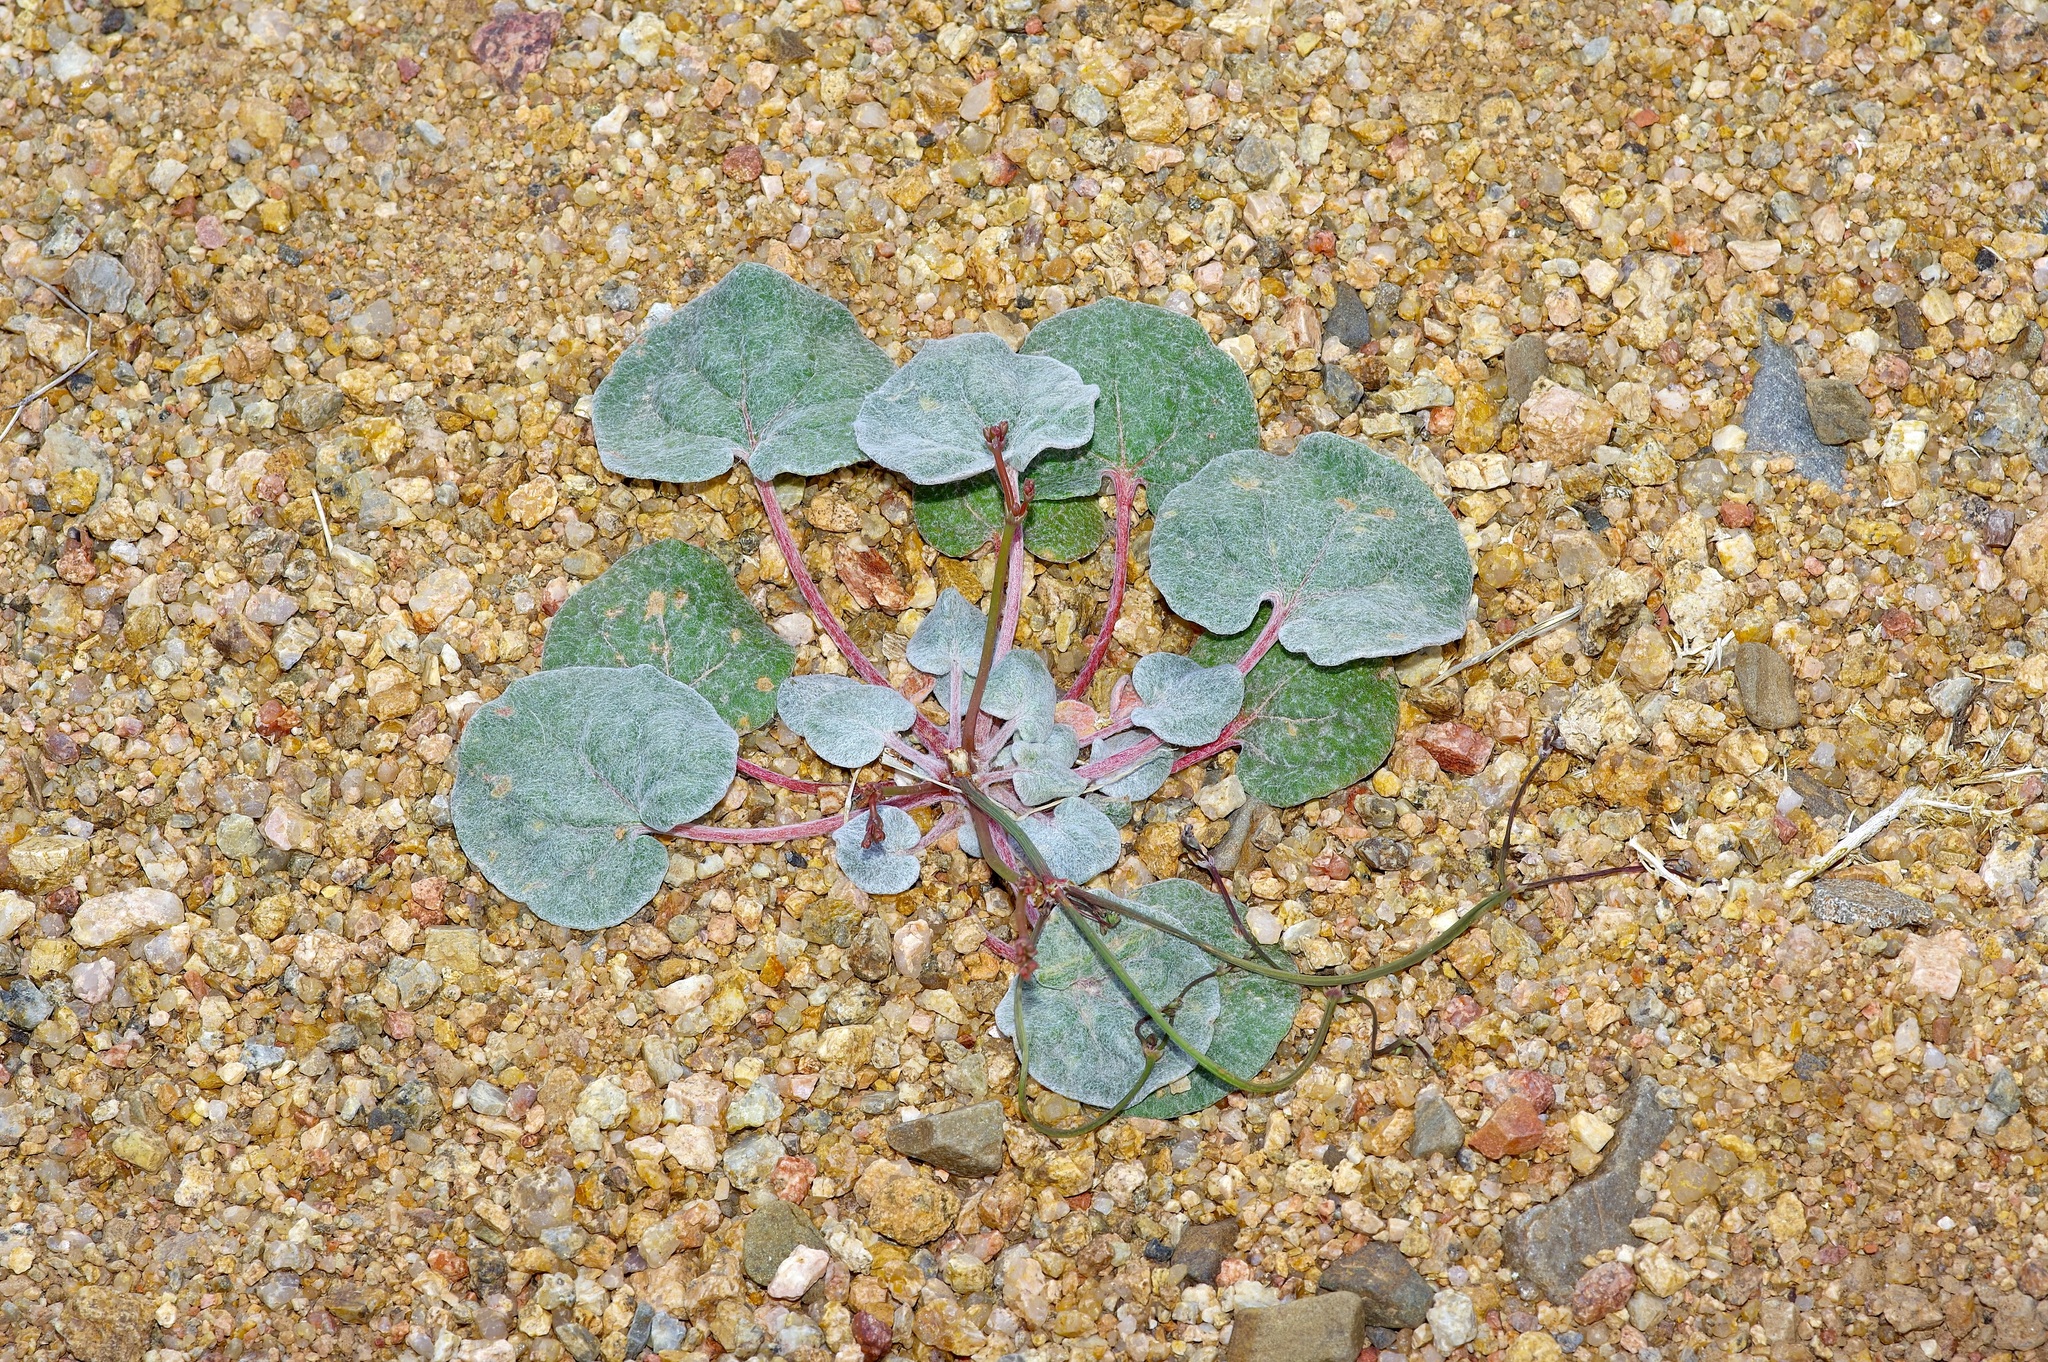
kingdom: Plantae
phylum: Tracheophyta
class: Magnoliopsida
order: Caryophyllales
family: Polygonaceae
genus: Eriogonum
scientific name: Eriogonum deflexum
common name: Skeleton-weed
